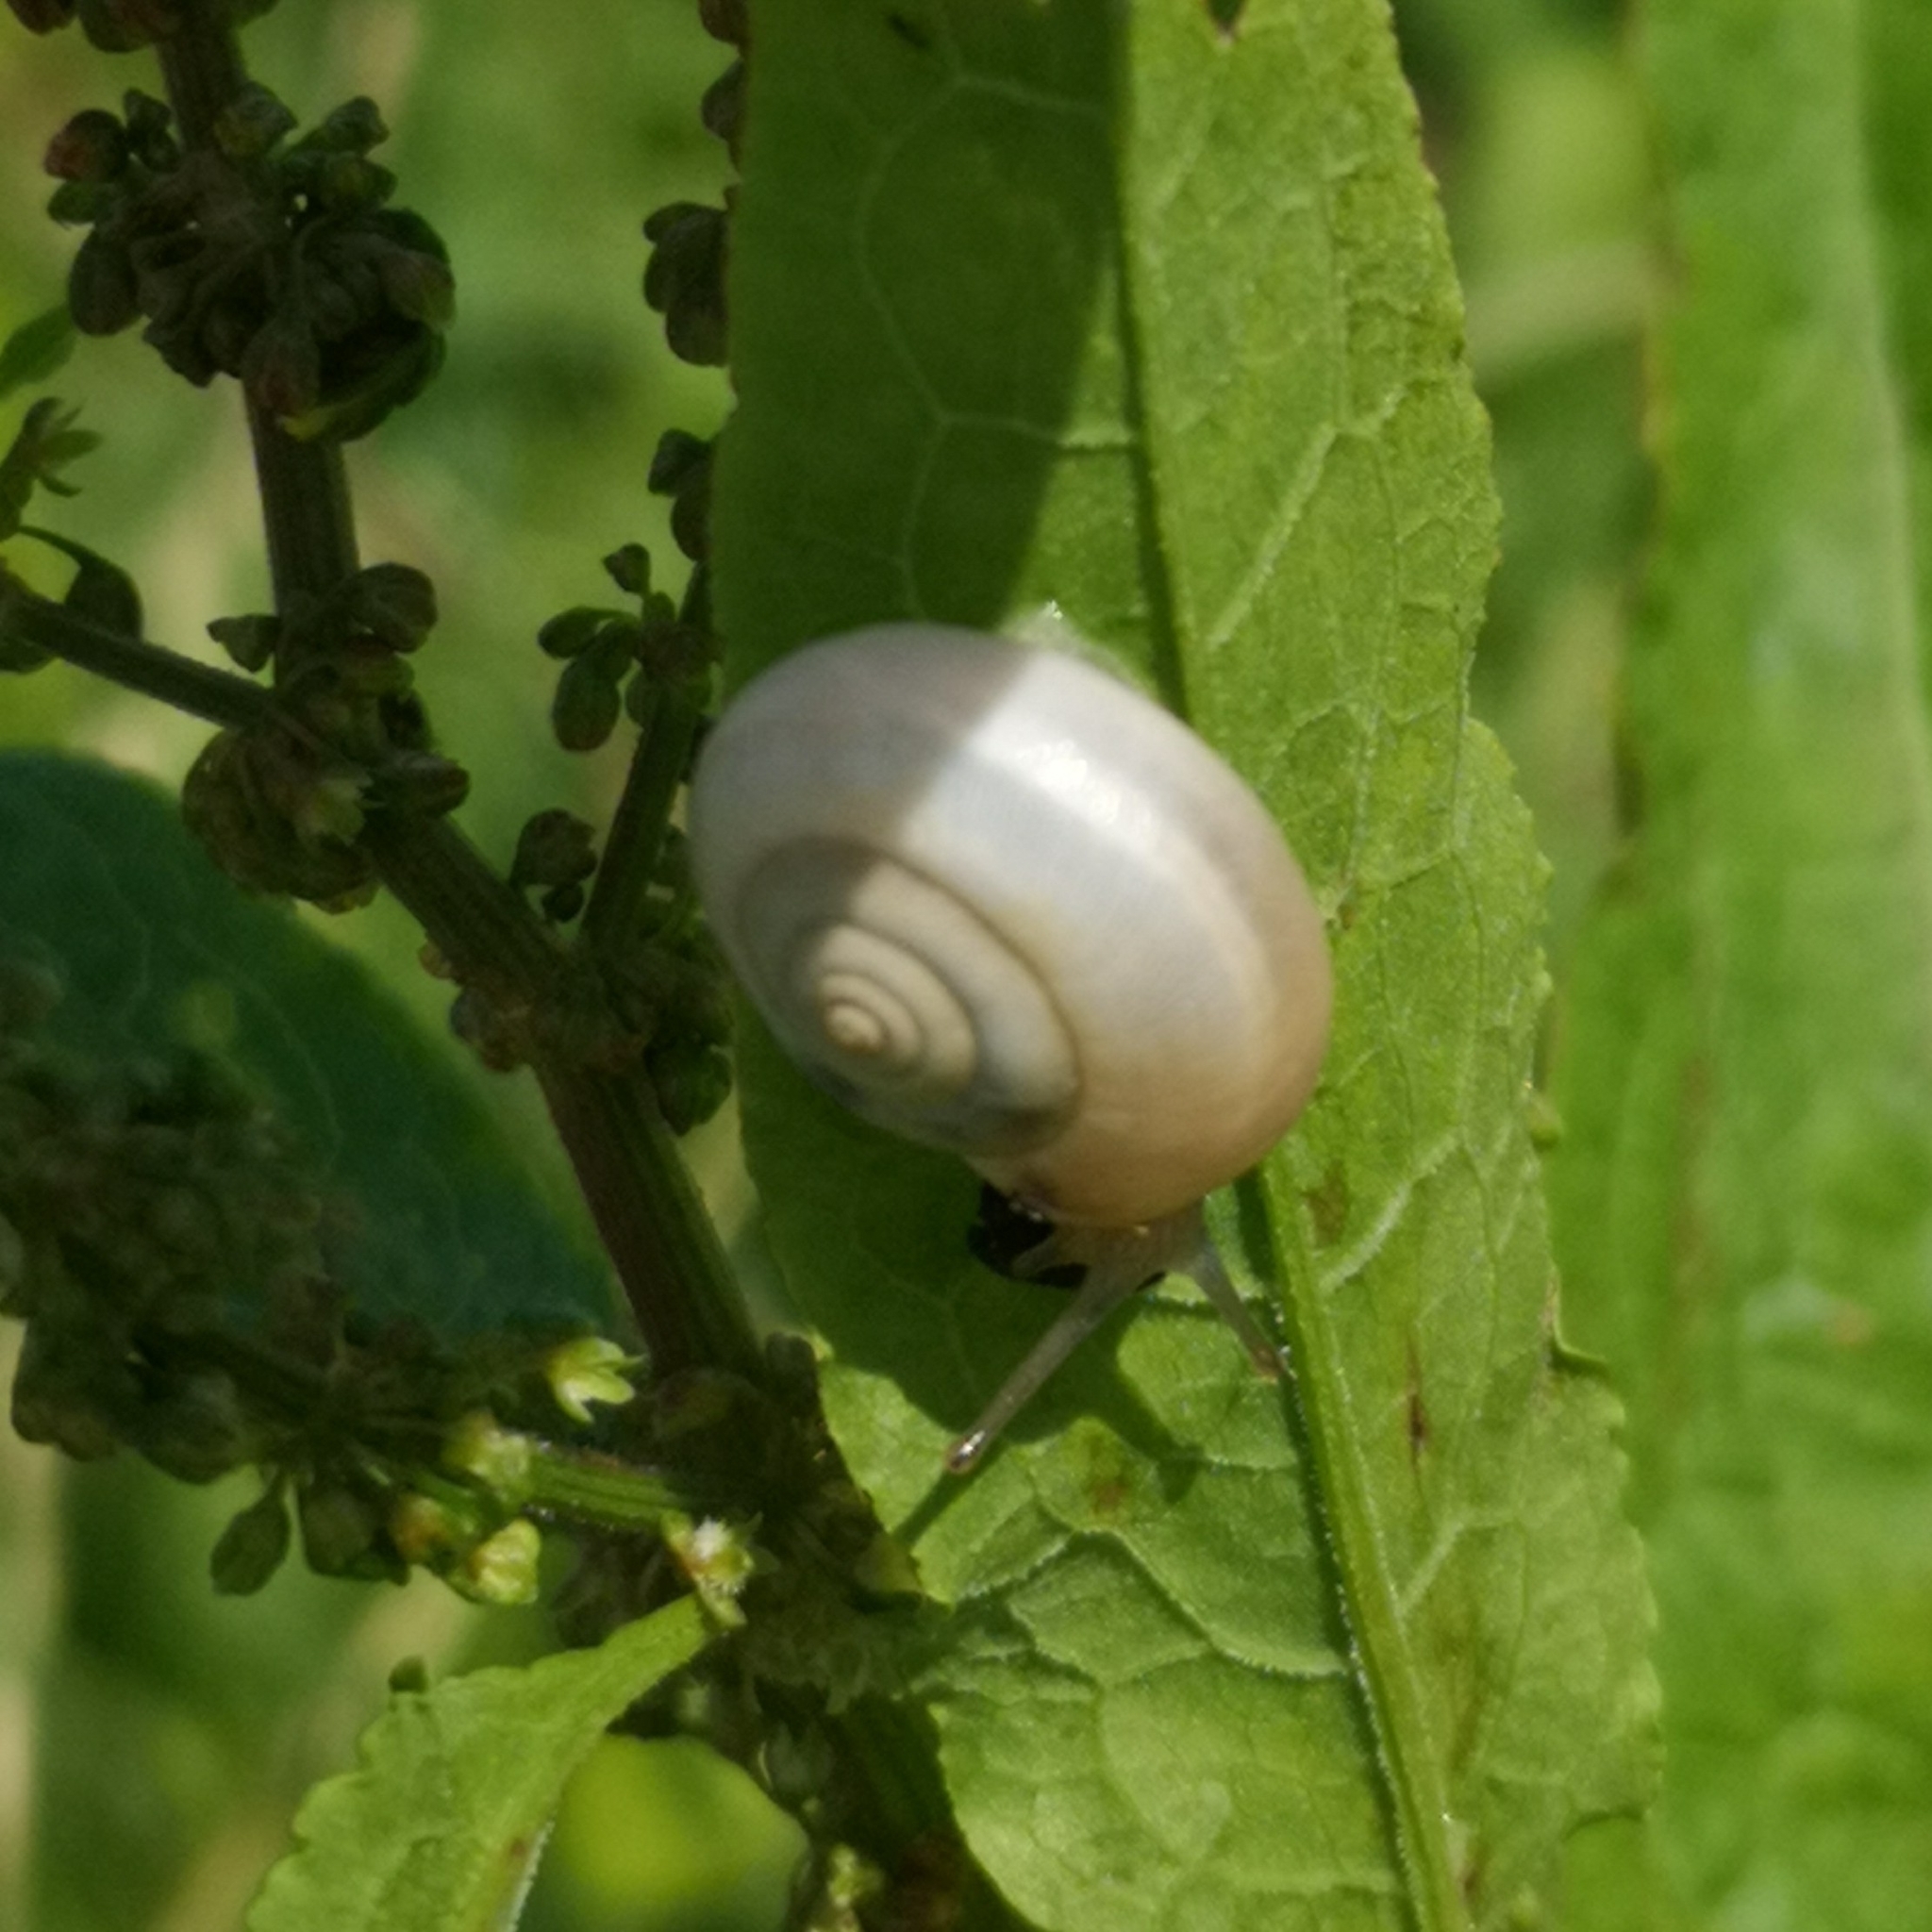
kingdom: Animalia
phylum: Mollusca
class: Gastropoda
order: Stylommatophora
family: Hygromiidae
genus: Monacha
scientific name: Monacha cartusiana
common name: Carthusian snail
